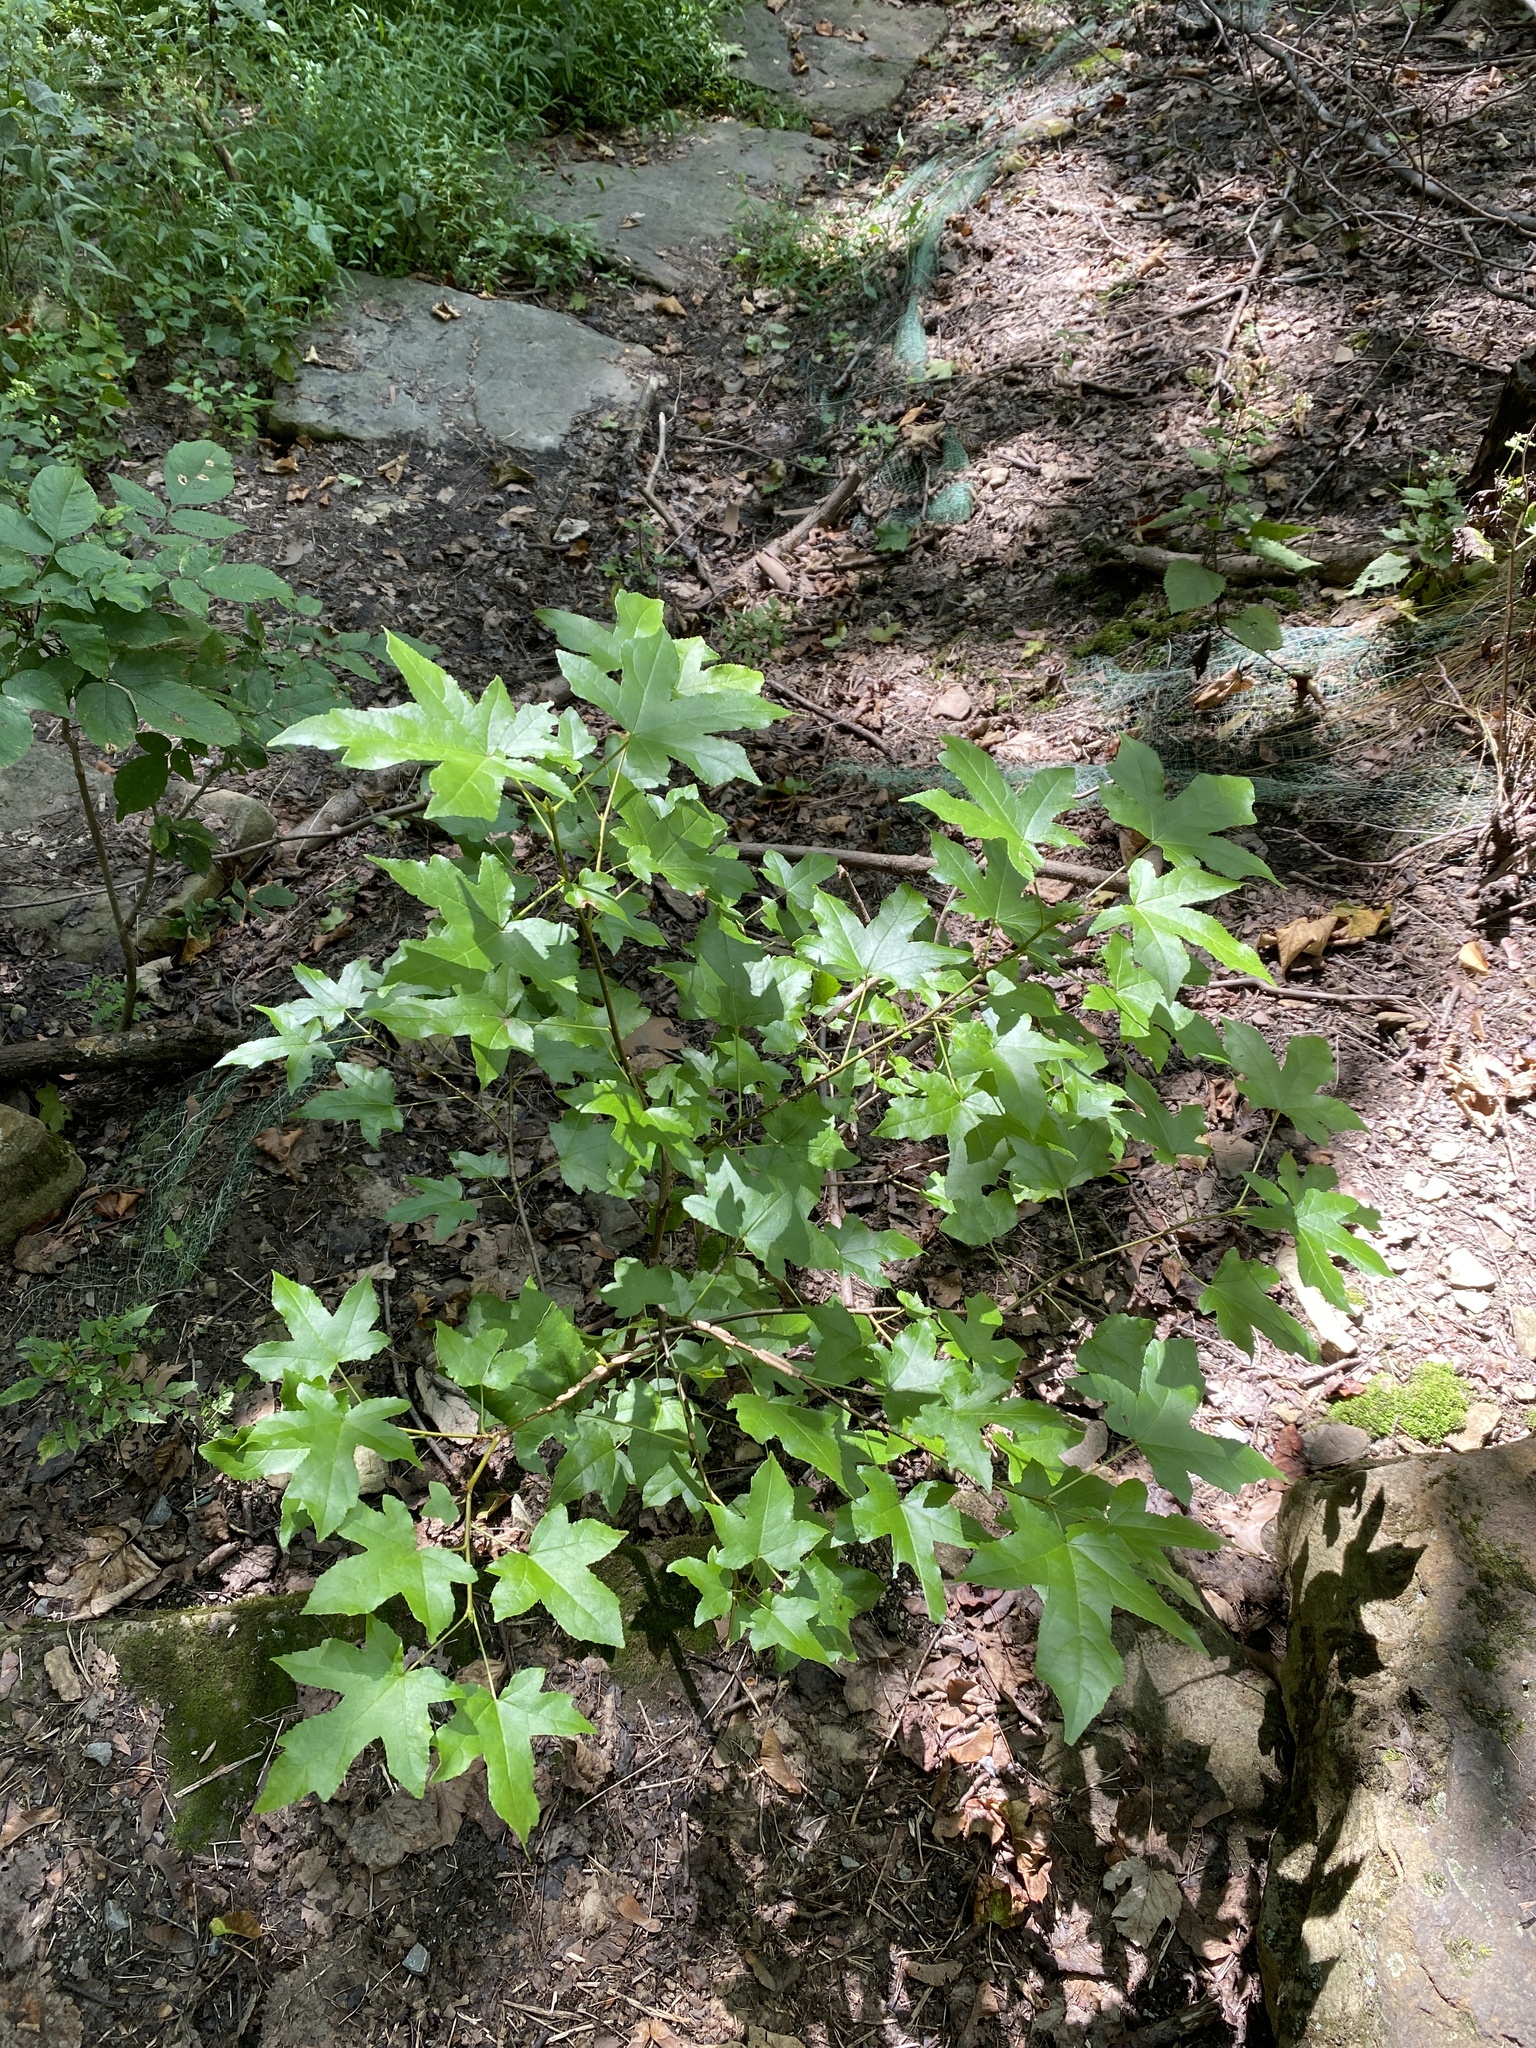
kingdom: Plantae
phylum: Tracheophyta
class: Magnoliopsida
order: Saxifragales
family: Altingiaceae
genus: Liquidambar
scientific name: Liquidambar styraciflua
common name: Sweet gum
